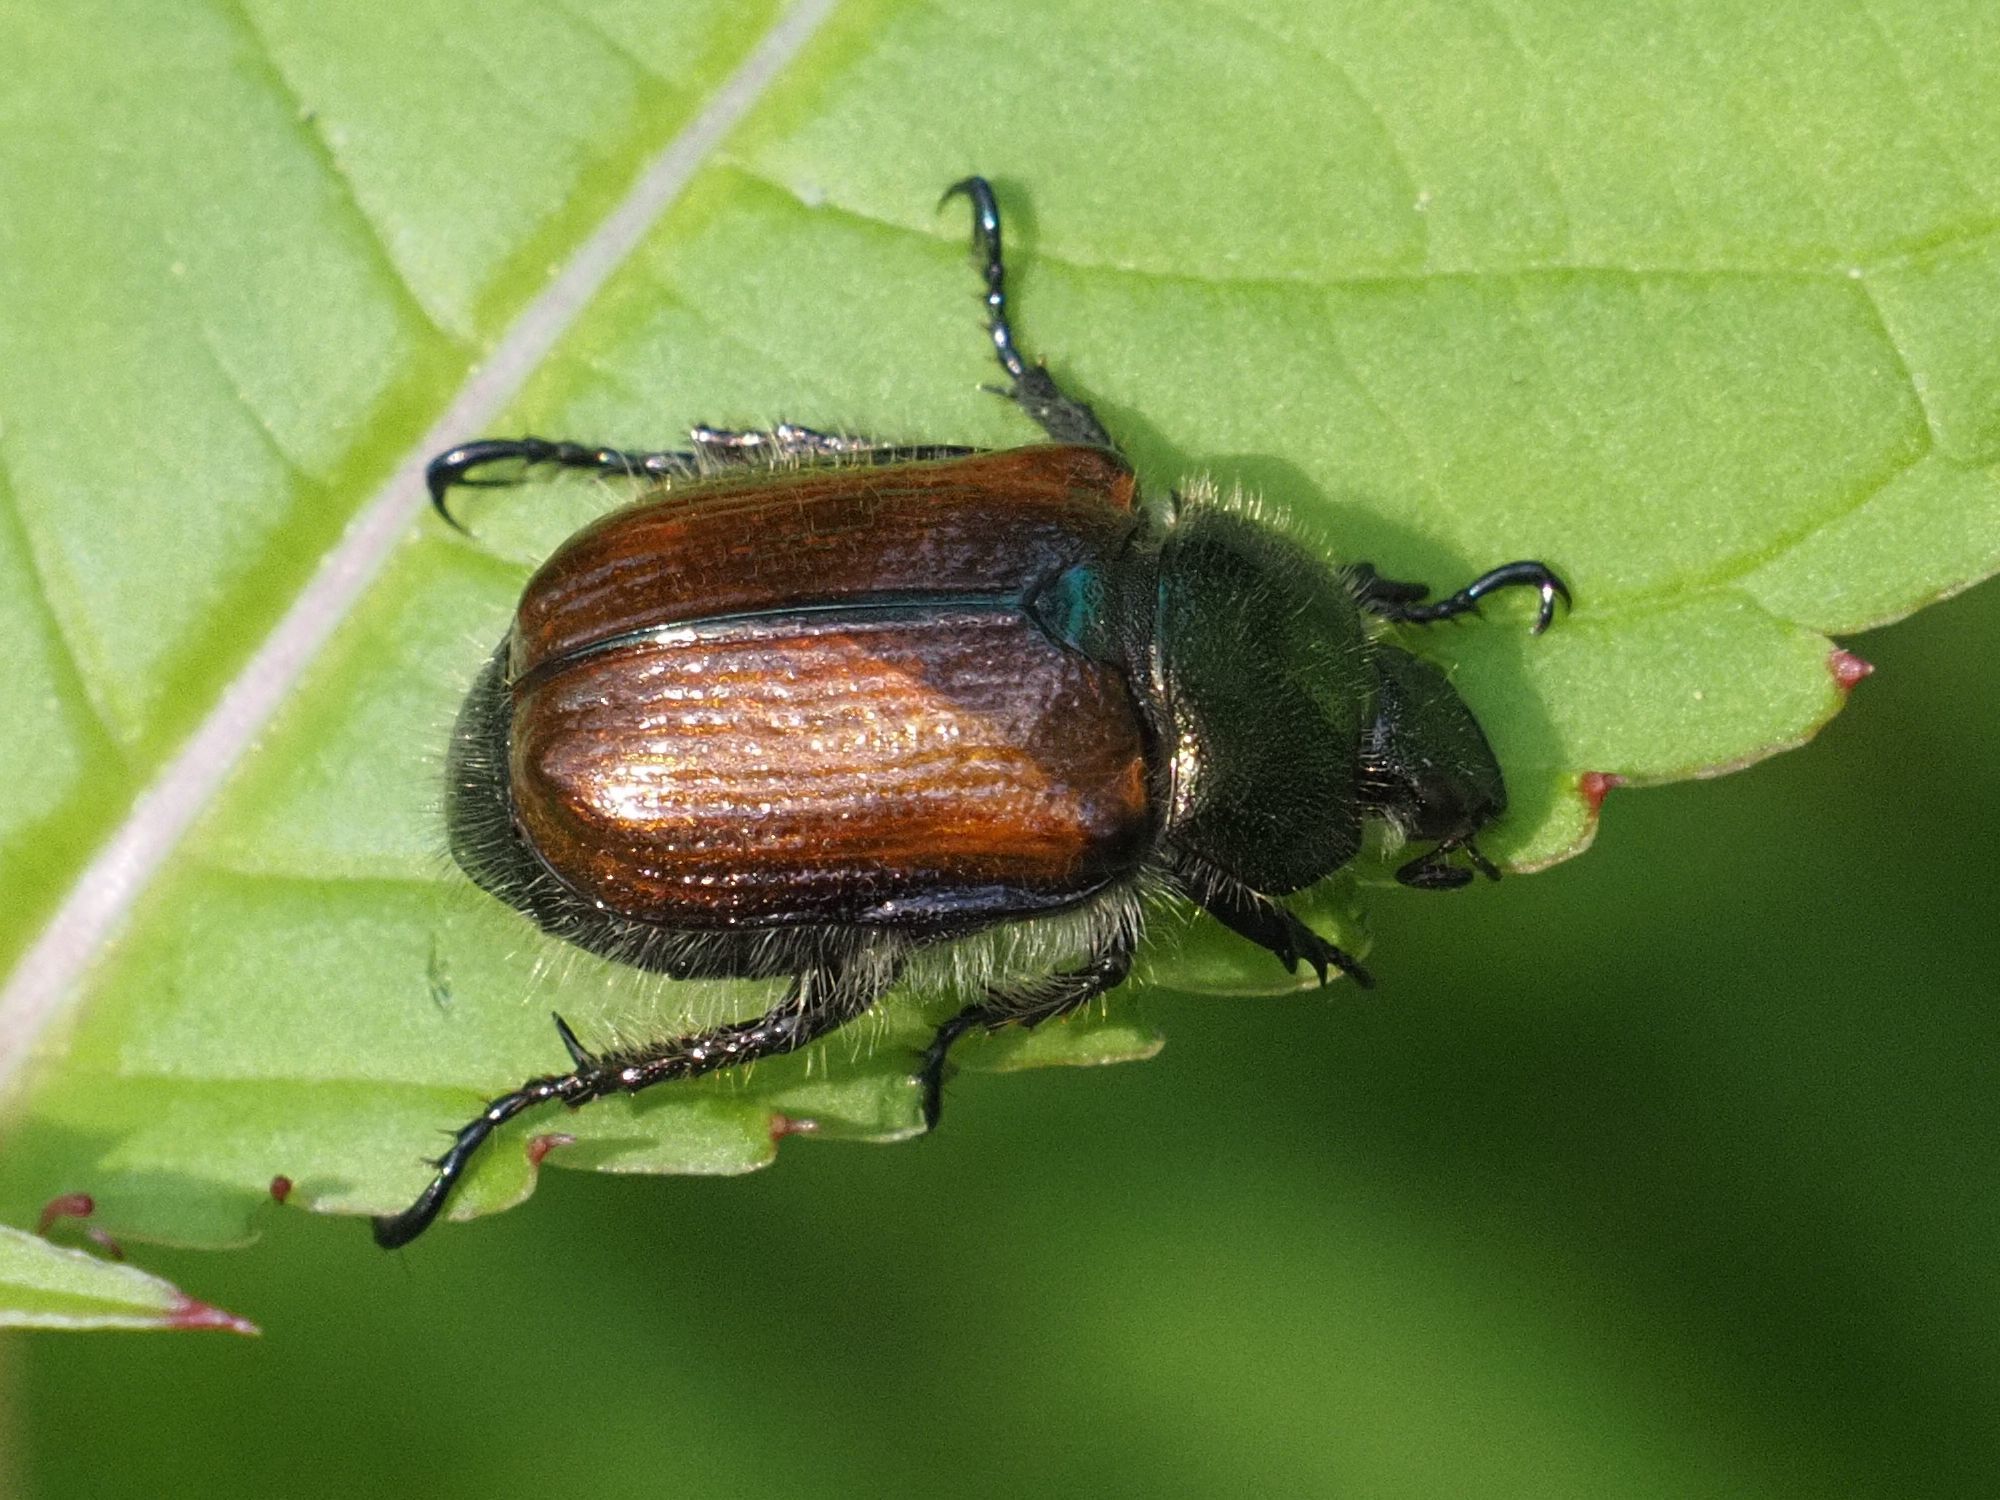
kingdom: Animalia
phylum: Arthropoda
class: Insecta
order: Coleoptera
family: Scarabaeidae
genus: Phyllopertha
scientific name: Phyllopertha horticola
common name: Garden chafer
